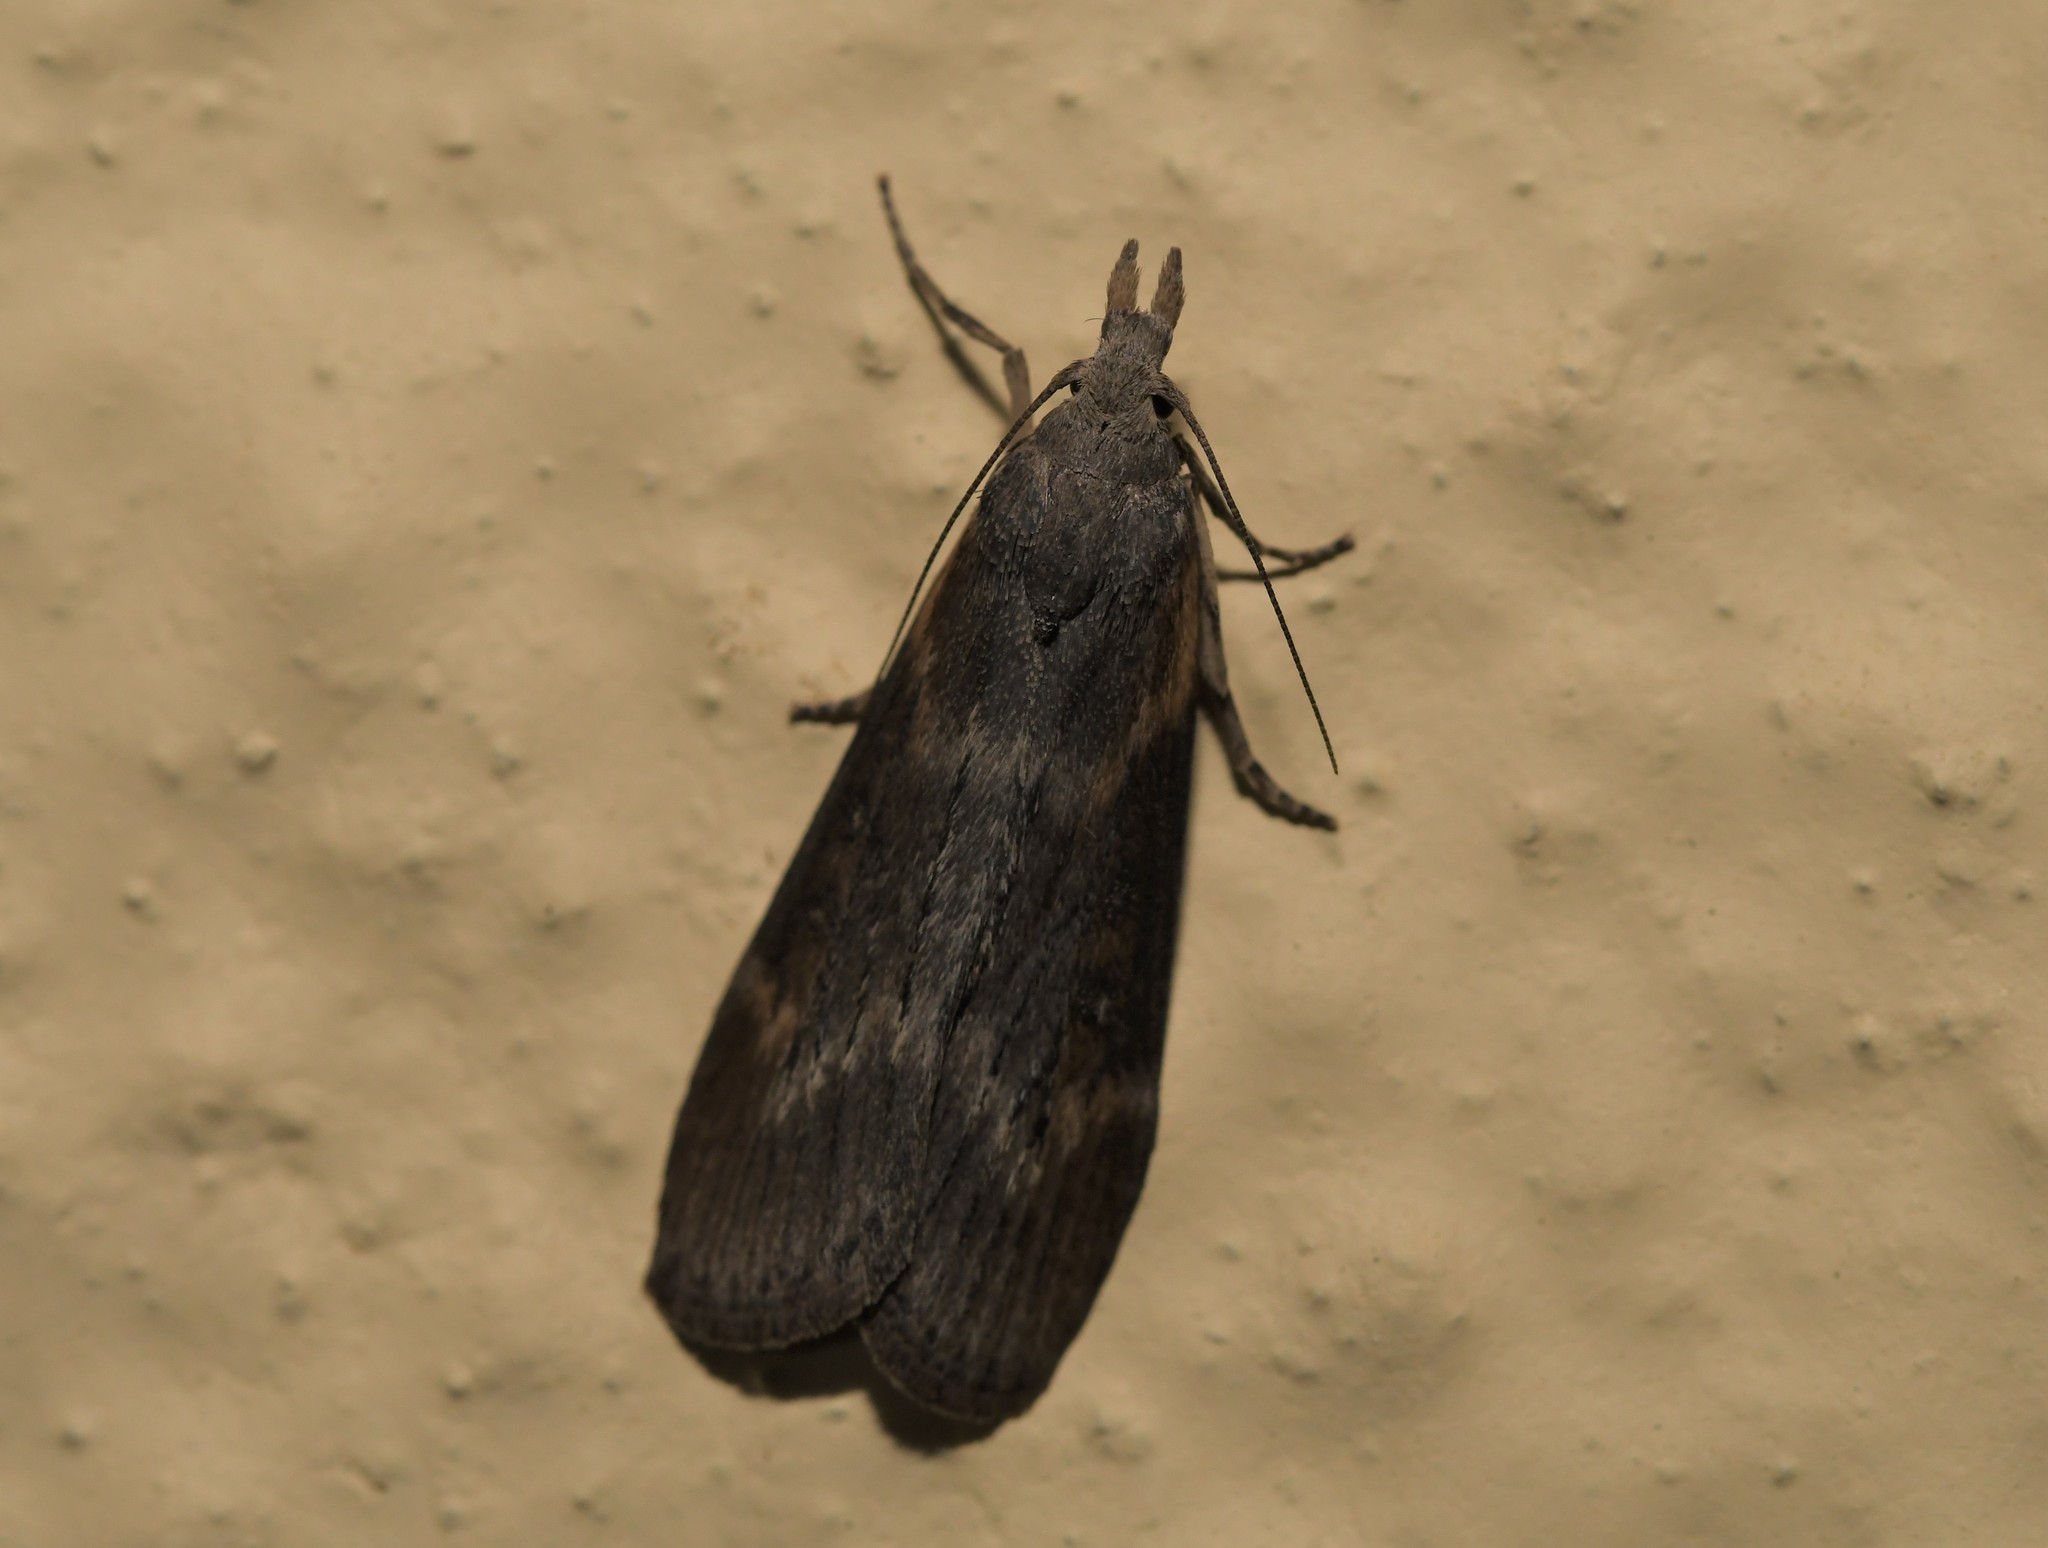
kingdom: Animalia
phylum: Arthropoda
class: Insecta
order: Lepidoptera
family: Pyralidae
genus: Lamoria
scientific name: Lamoria anella
